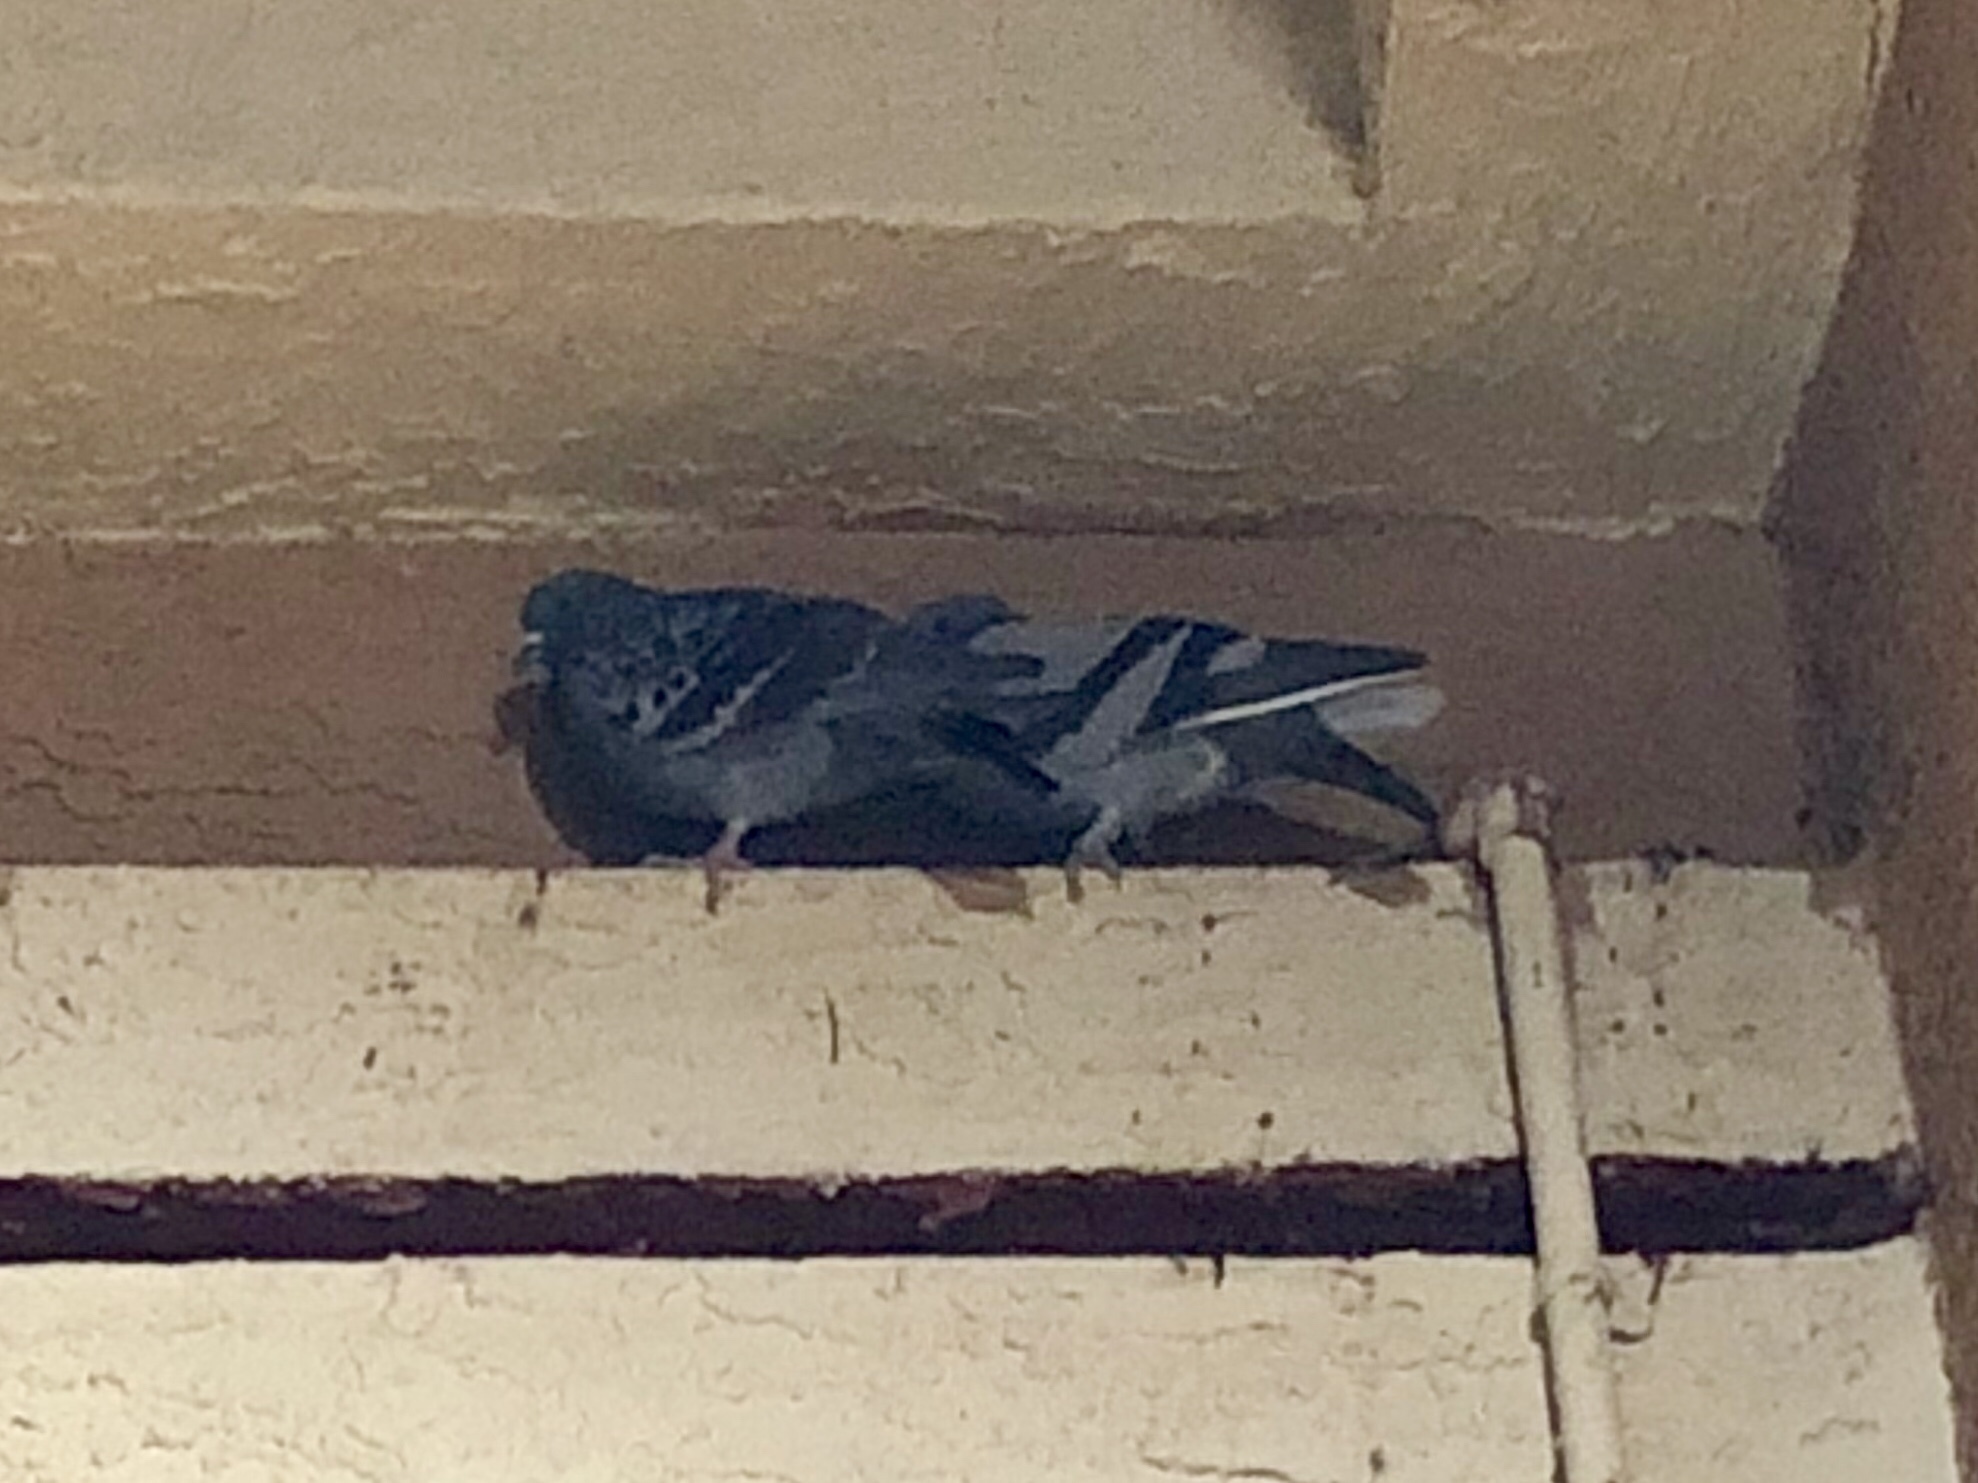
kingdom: Animalia
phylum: Chordata
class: Aves
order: Columbiformes
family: Columbidae
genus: Columba
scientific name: Columba livia
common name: Rock pigeon
